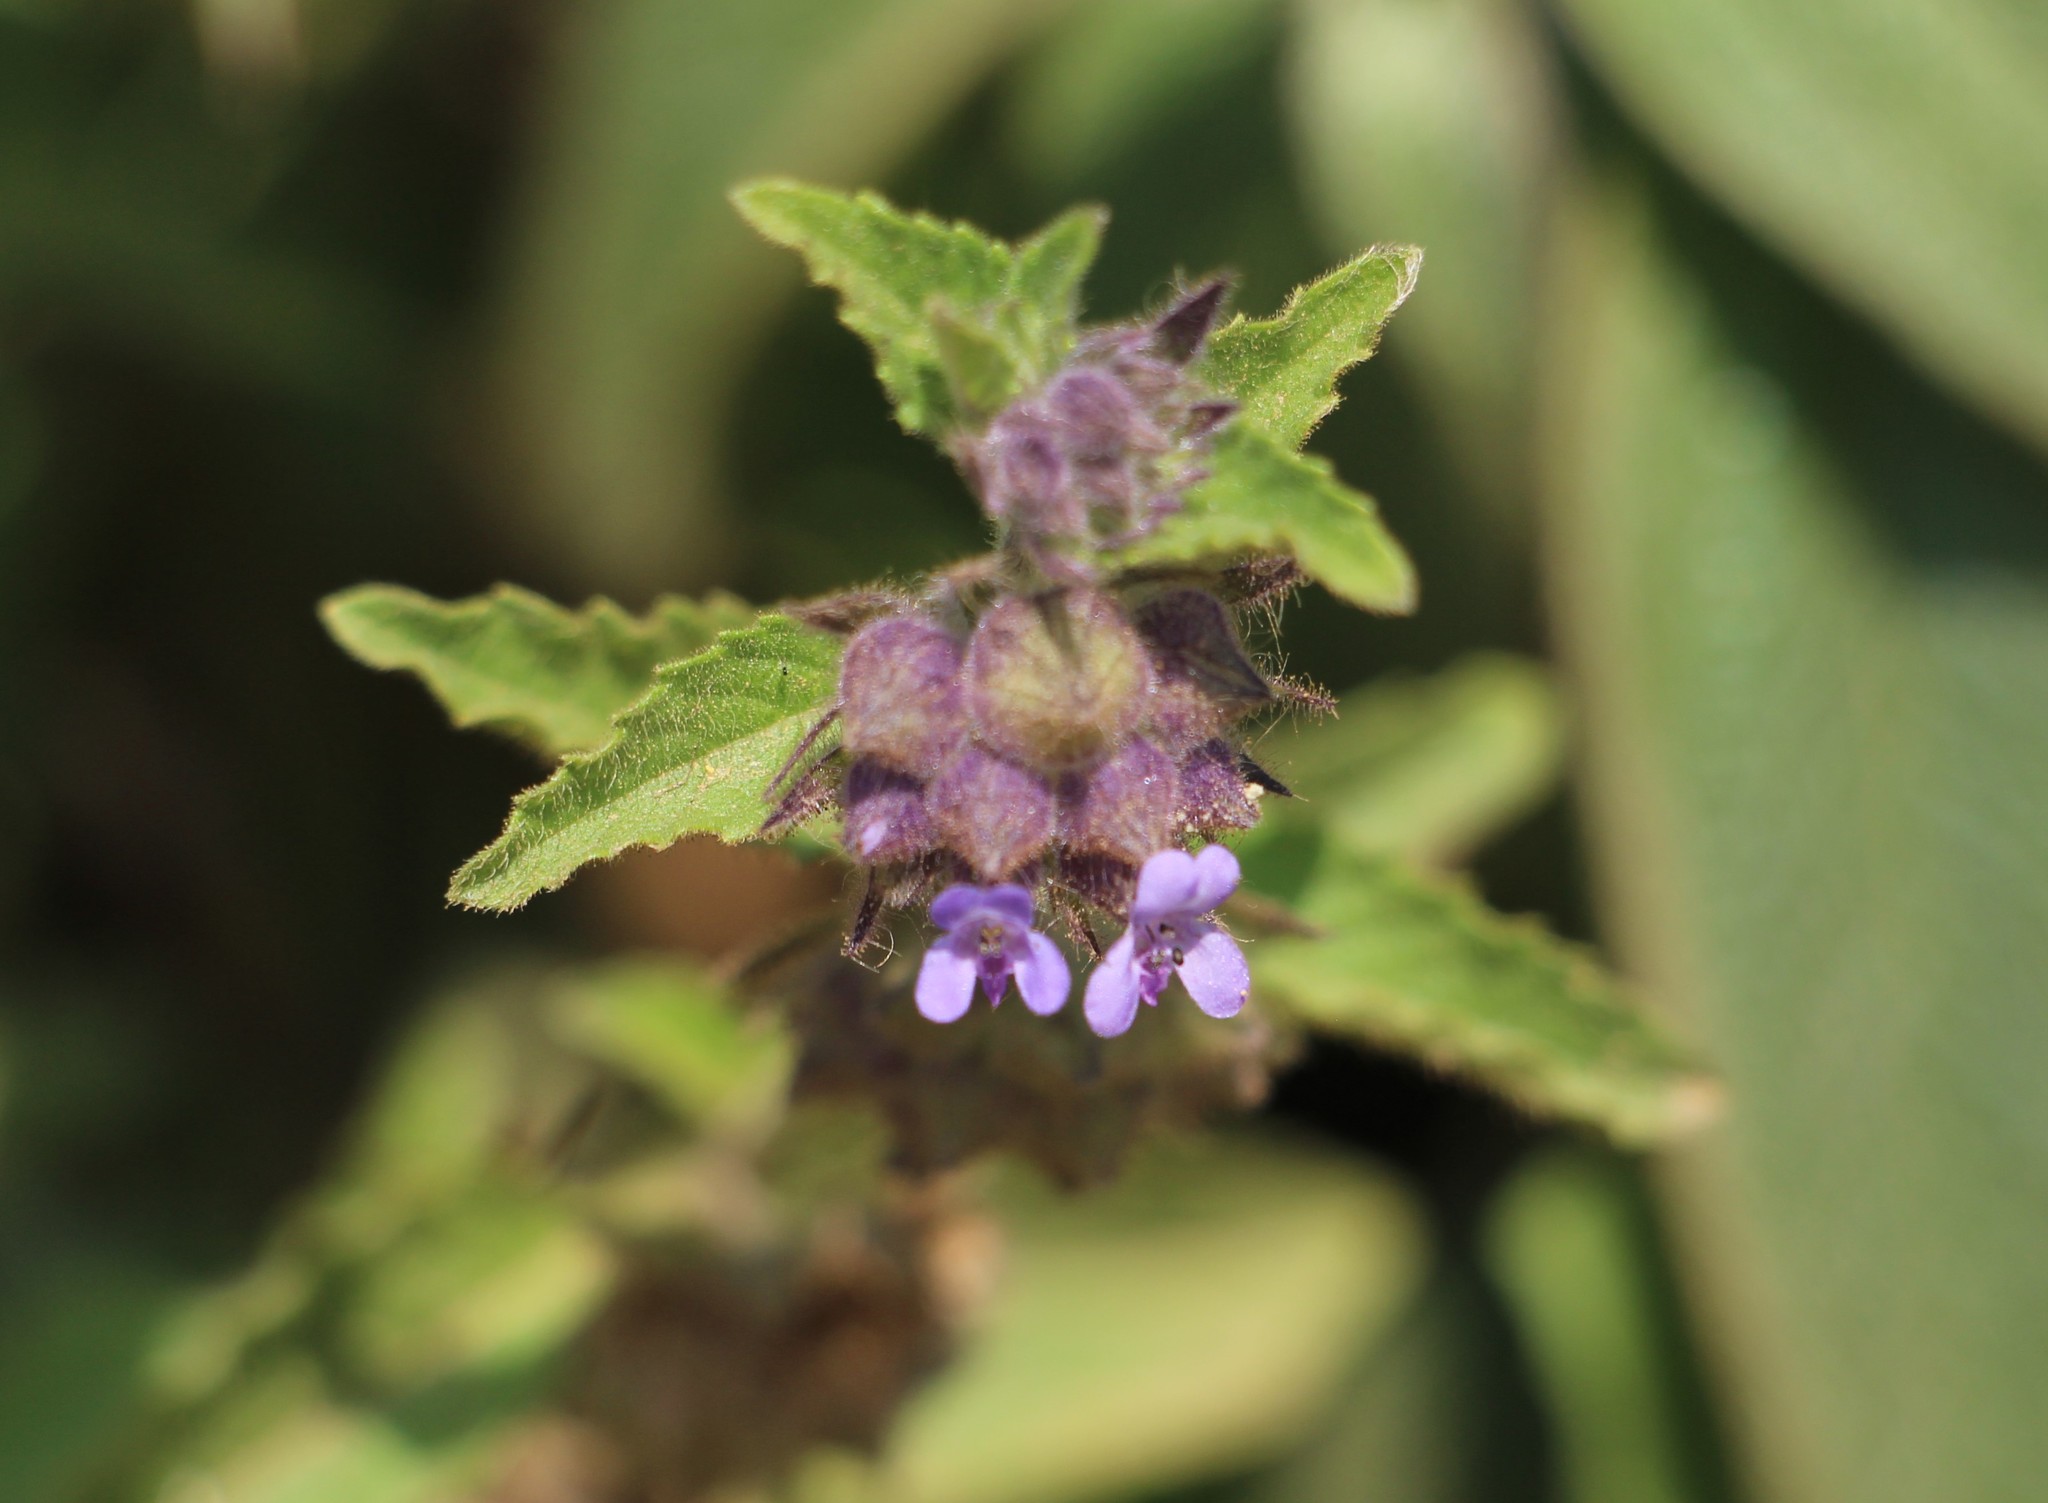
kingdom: Plantae
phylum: Tracheophyta
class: Magnoliopsida
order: Lamiales
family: Lamiaceae
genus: Marsypianthes
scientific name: Marsypianthes chamaedrys
